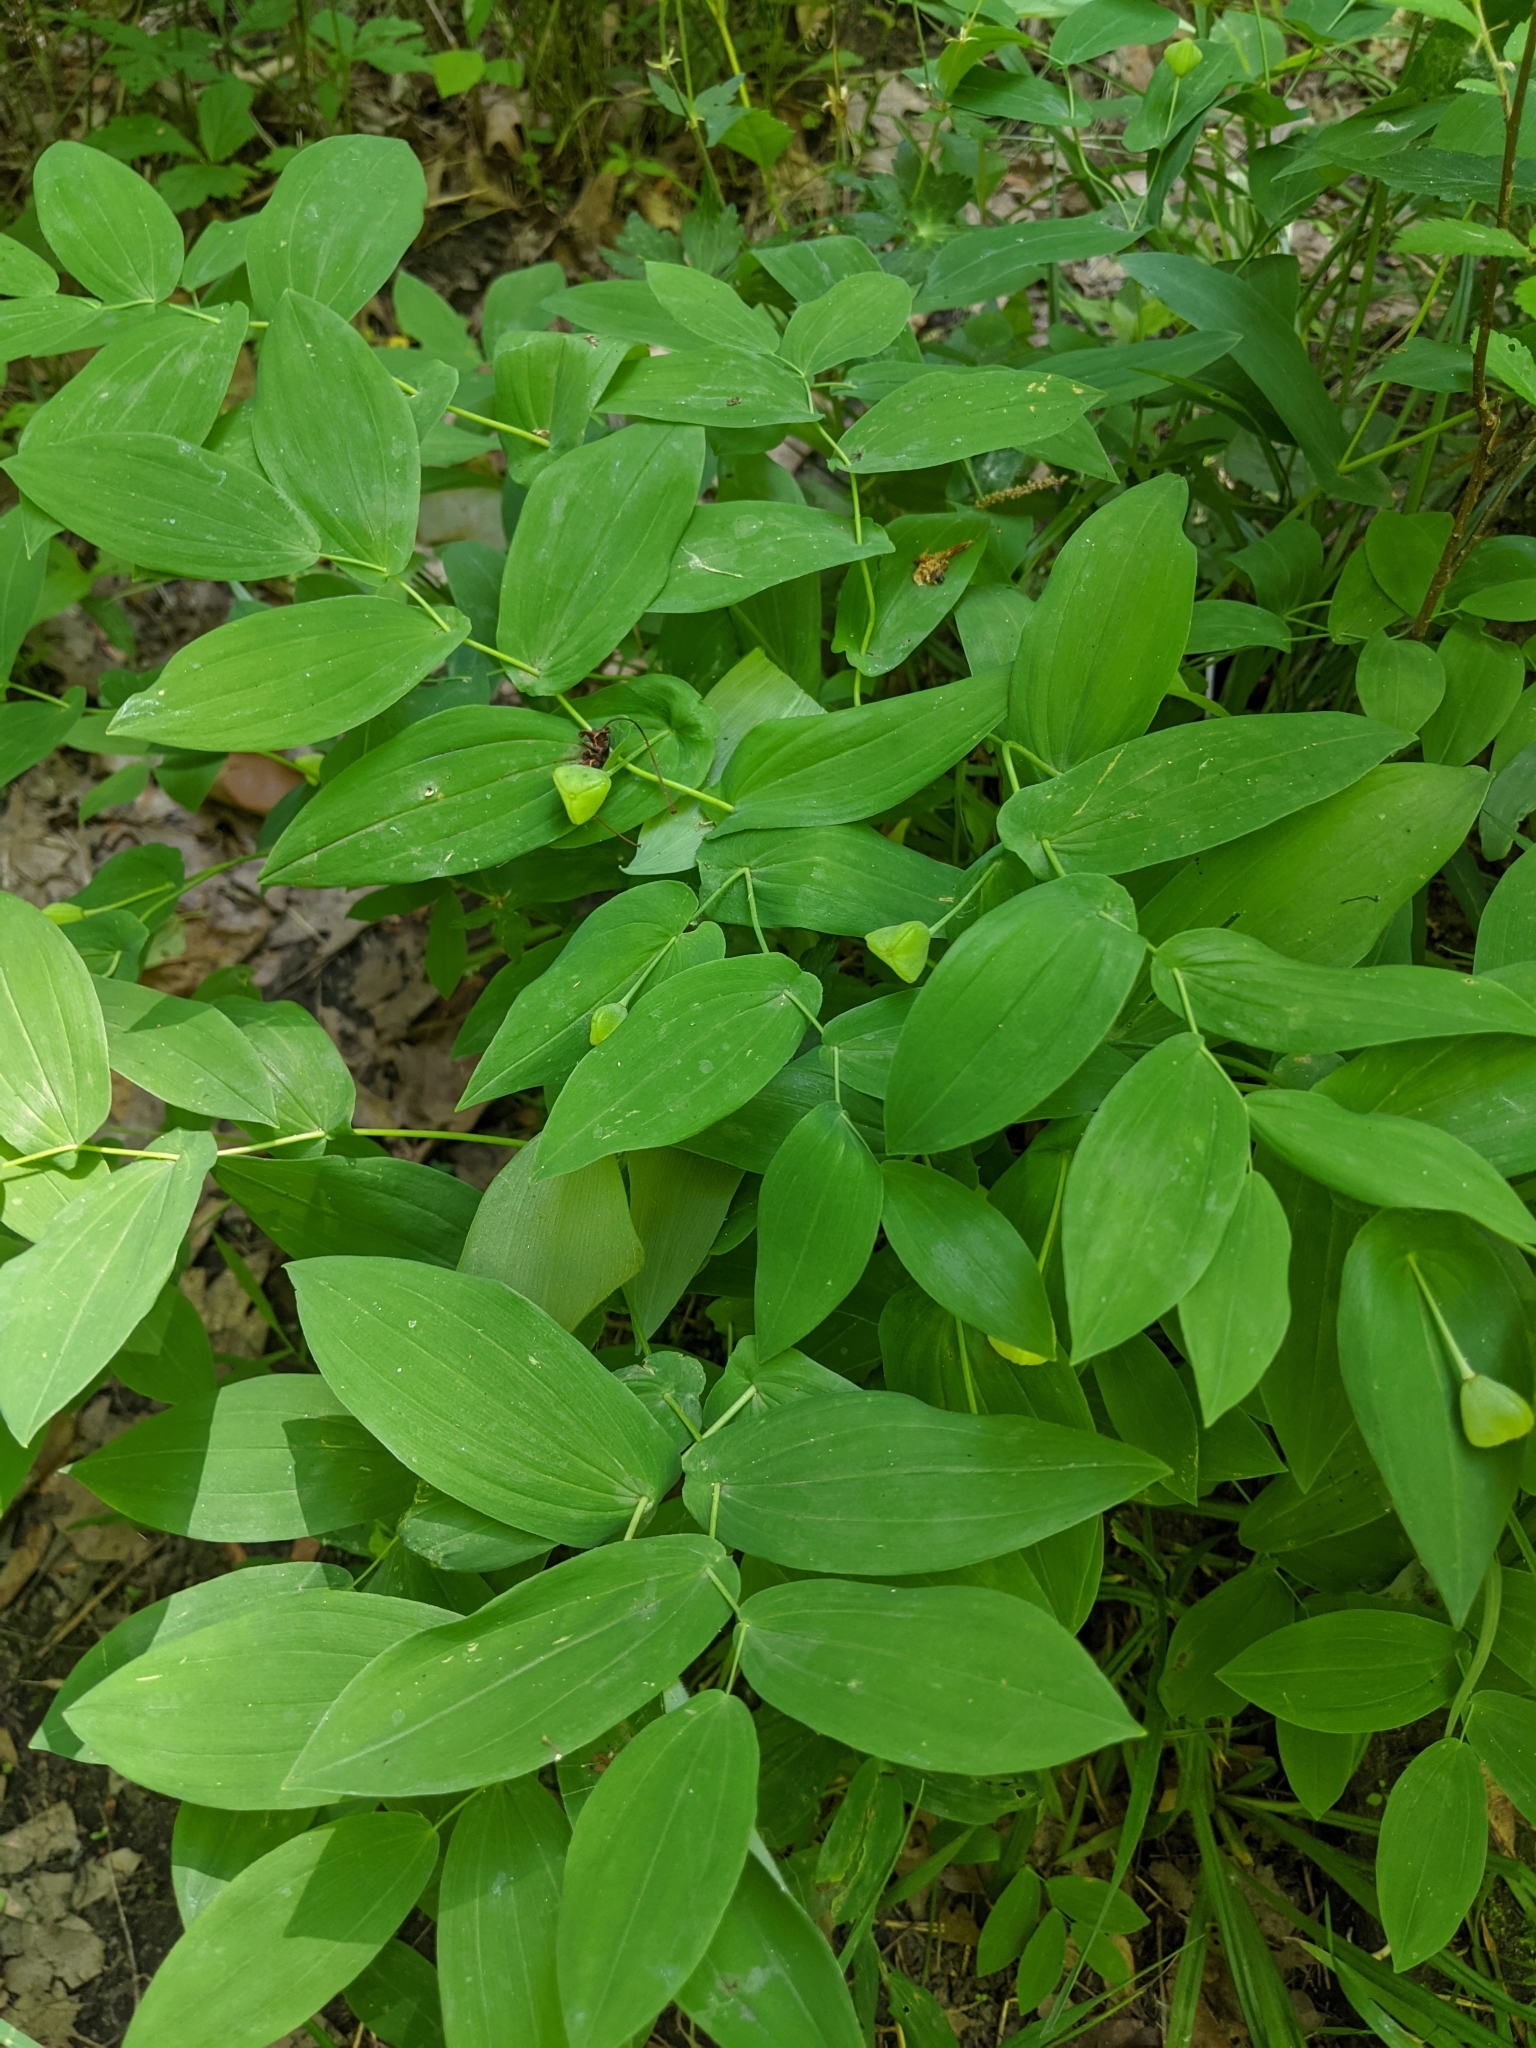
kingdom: Plantae
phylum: Tracheophyta
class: Liliopsida
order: Liliales
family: Colchicaceae
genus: Uvularia
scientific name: Uvularia grandiflora
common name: Bellwort
